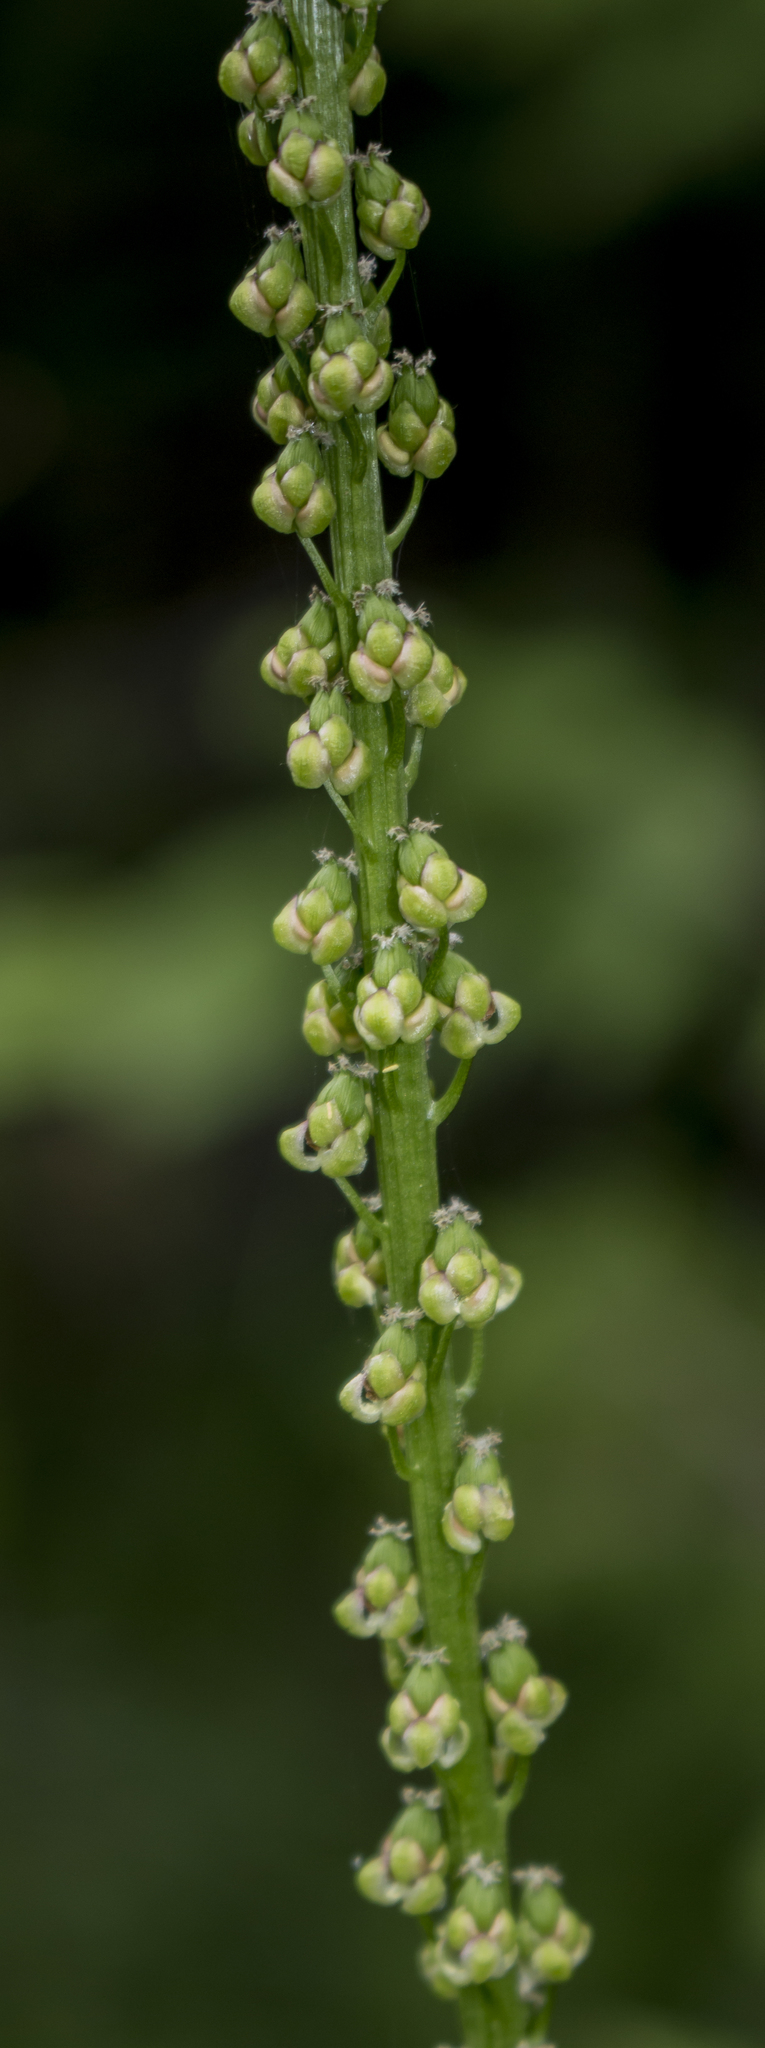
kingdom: Plantae
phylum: Tracheophyta
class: Liliopsida
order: Alismatales
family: Juncaginaceae
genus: Triglochin
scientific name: Triglochin maritima
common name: Sea arrowgrass
